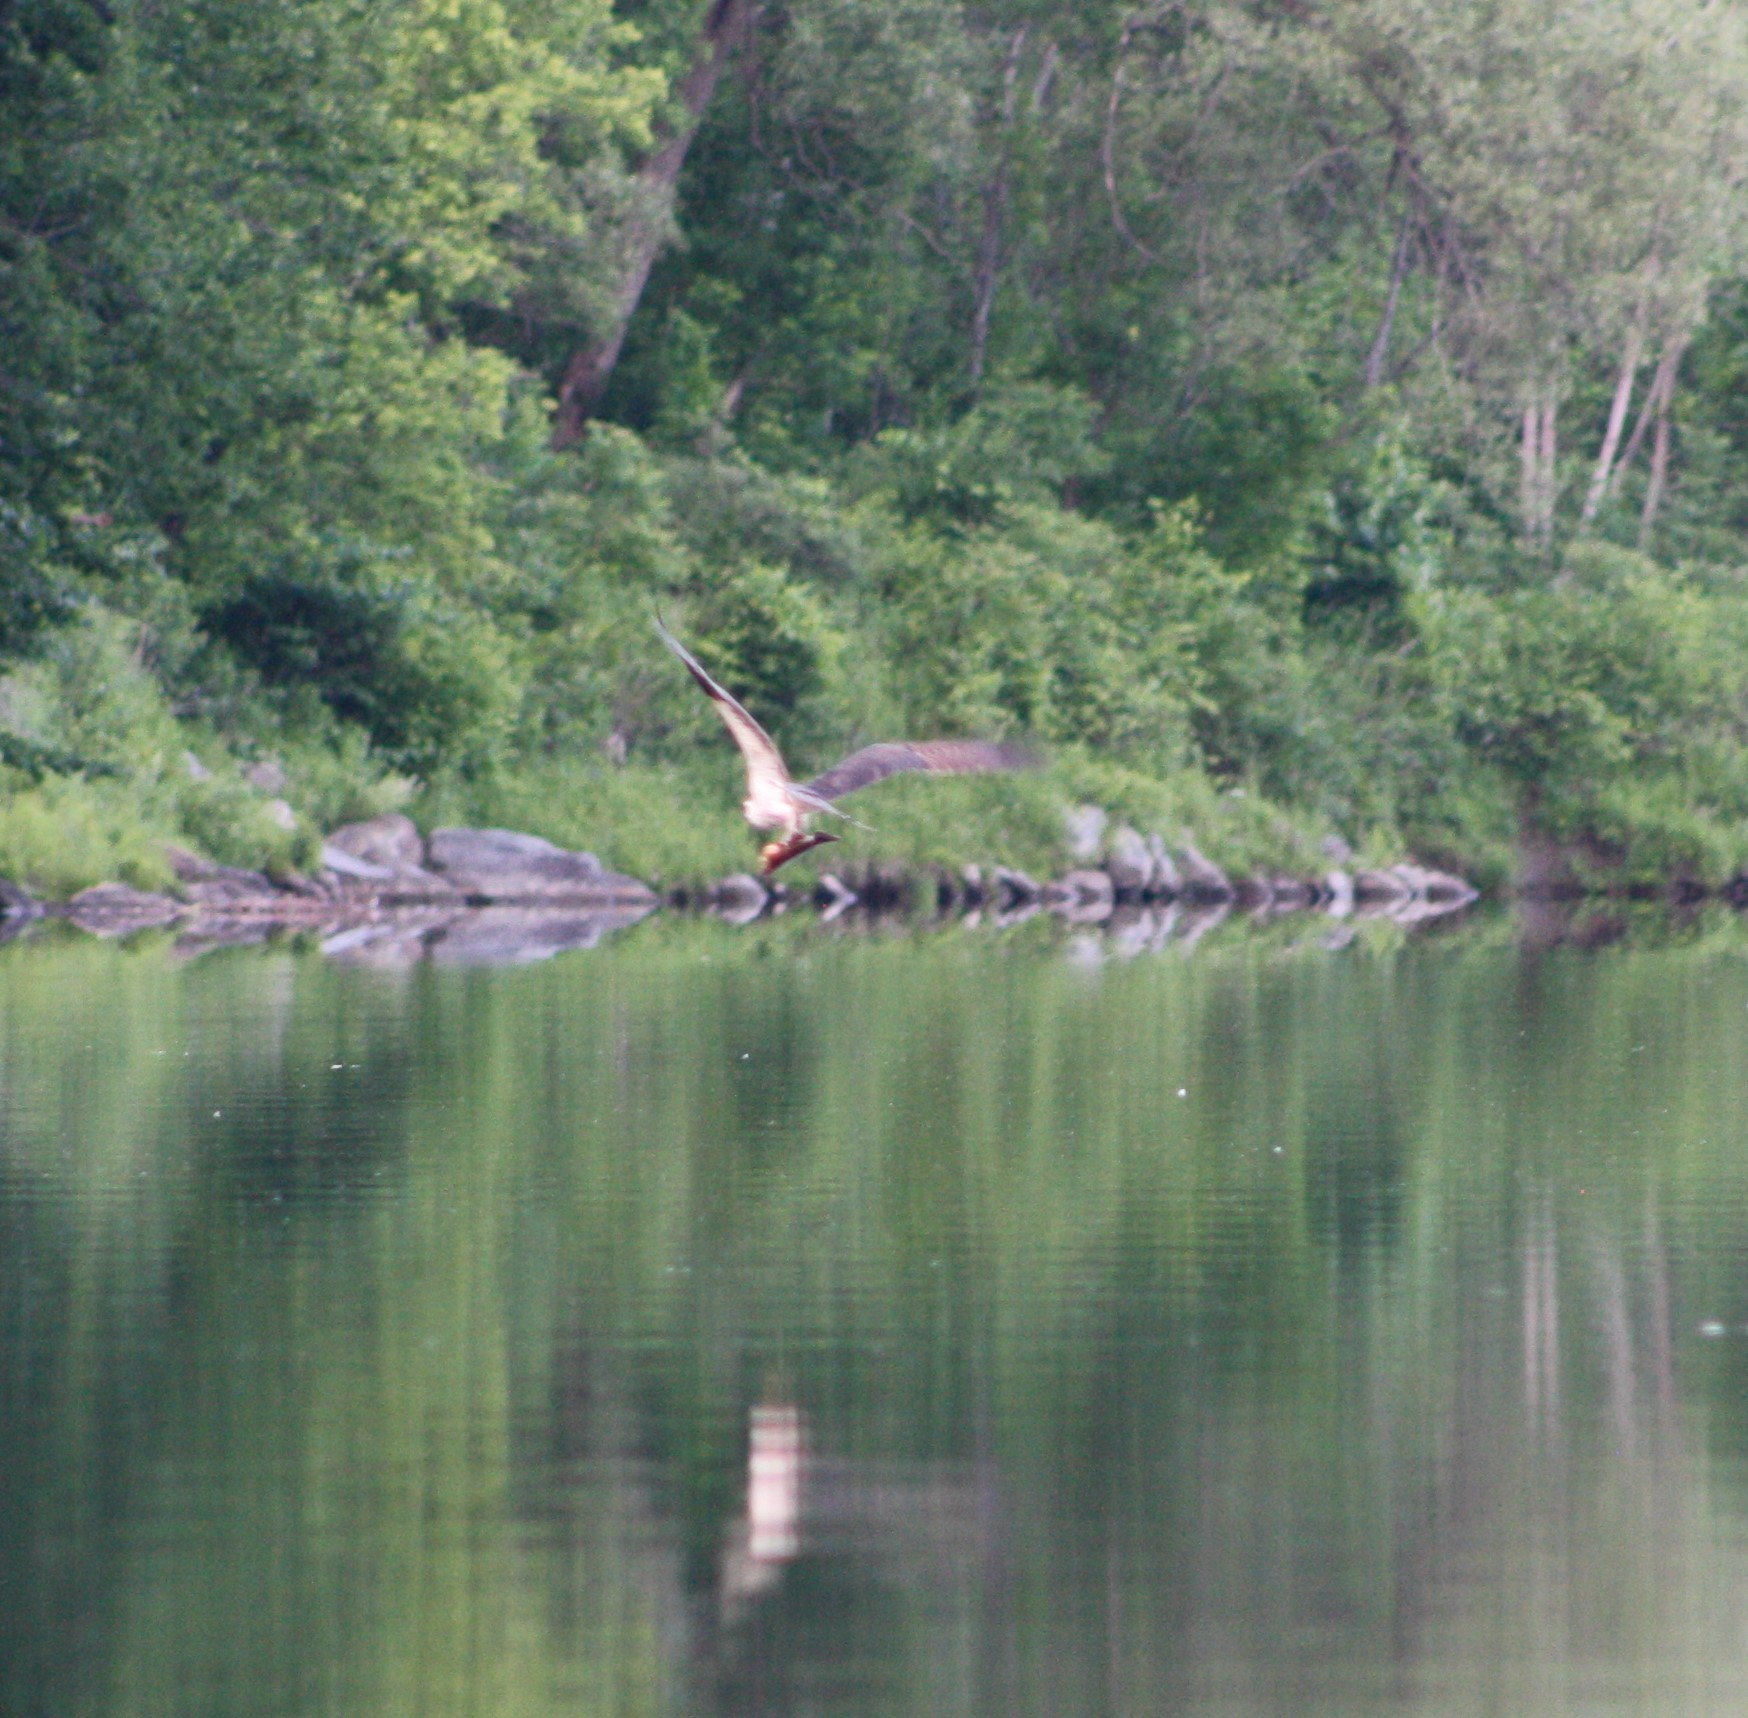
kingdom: Animalia
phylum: Chordata
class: Aves
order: Accipitriformes
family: Pandionidae
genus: Pandion
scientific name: Pandion haliaetus
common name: Osprey
